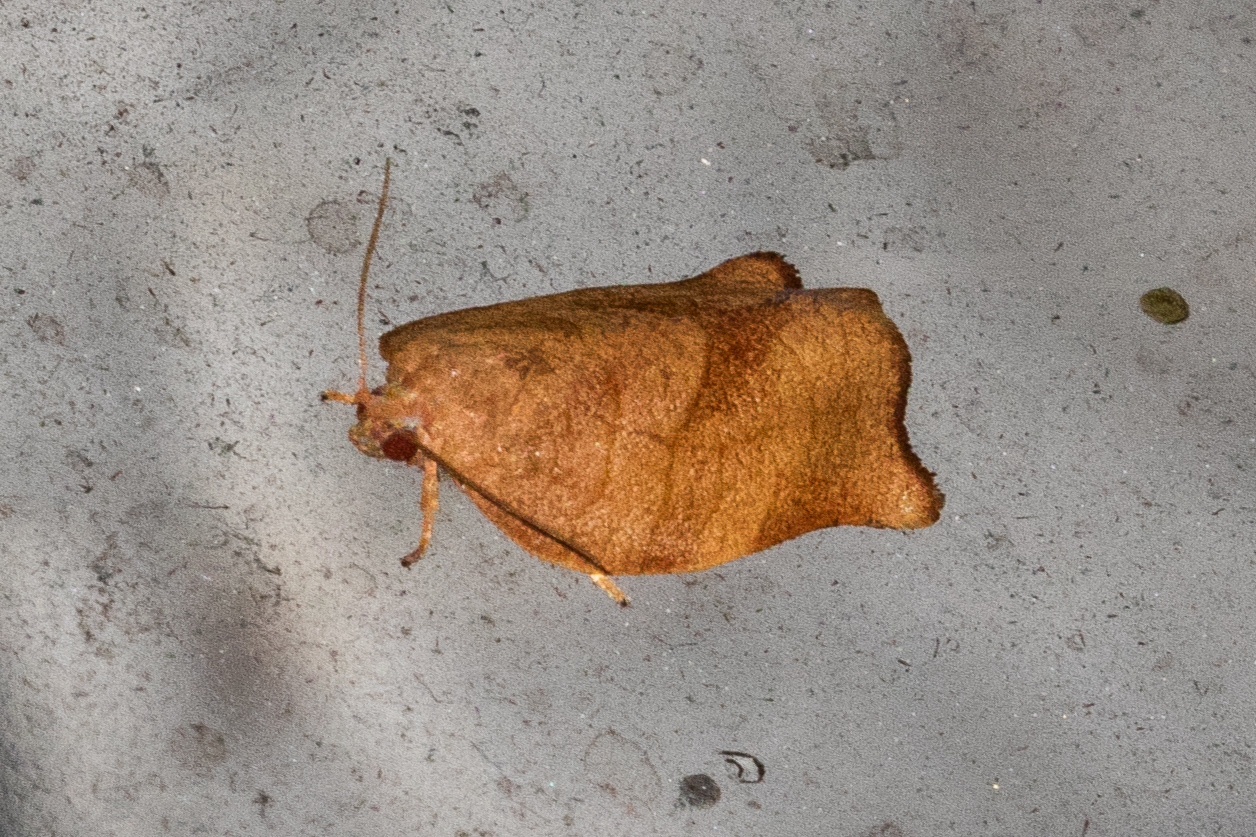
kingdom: Animalia
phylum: Arthropoda
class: Insecta
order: Lepidoptera
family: Tortricidae
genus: Choristoneura
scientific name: Choristoneura rosaceana
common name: Oblique-banded leafroller moth
